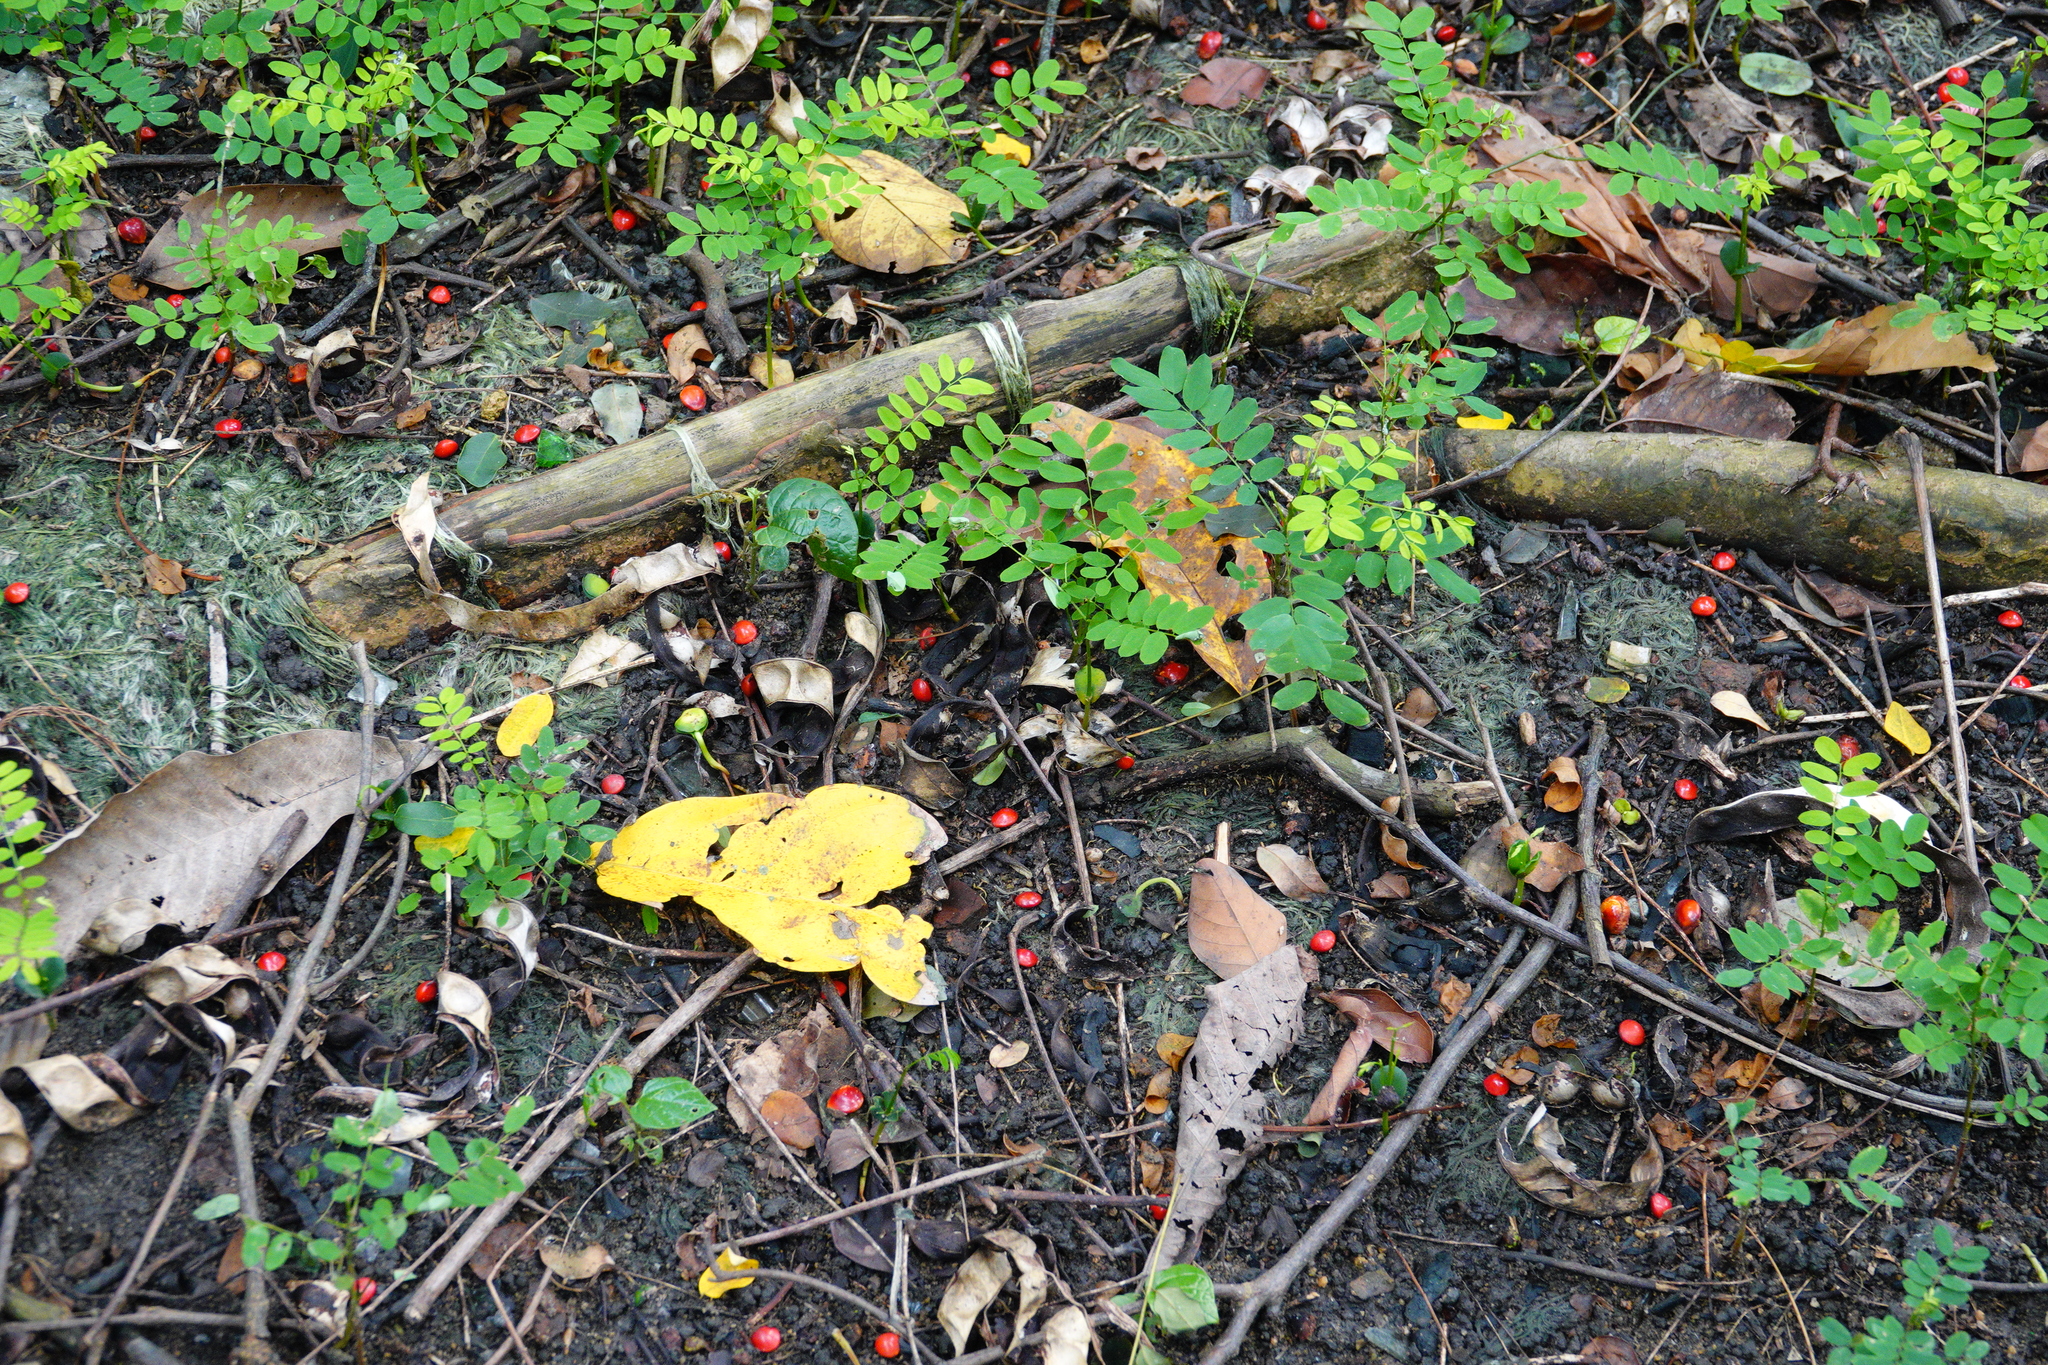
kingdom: Plantae
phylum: Tracheophyta
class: Magnoliopsida
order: Fabales
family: Fabaceae
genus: Adenanthera
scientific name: Adenanthera pavonina
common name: Red beadtree
